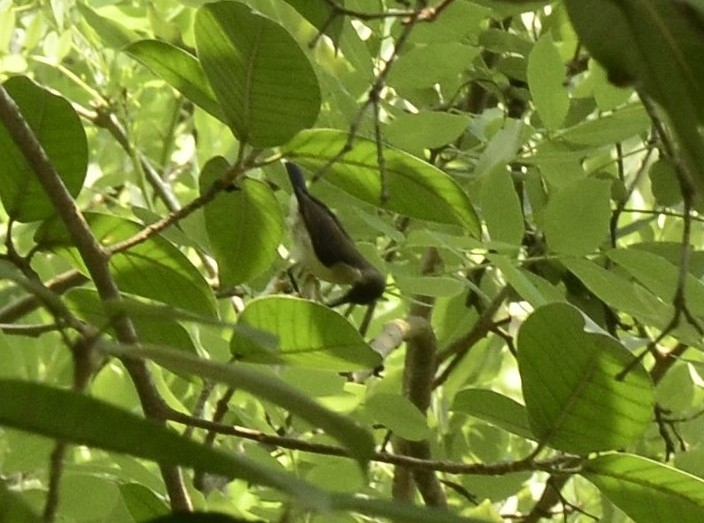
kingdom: Animalia
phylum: Chordata
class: Aves
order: Passeriformes
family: Nectariniidae
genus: Leptocoma
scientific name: Leptocoma zeylonica
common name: Purple-rumped sunbird
